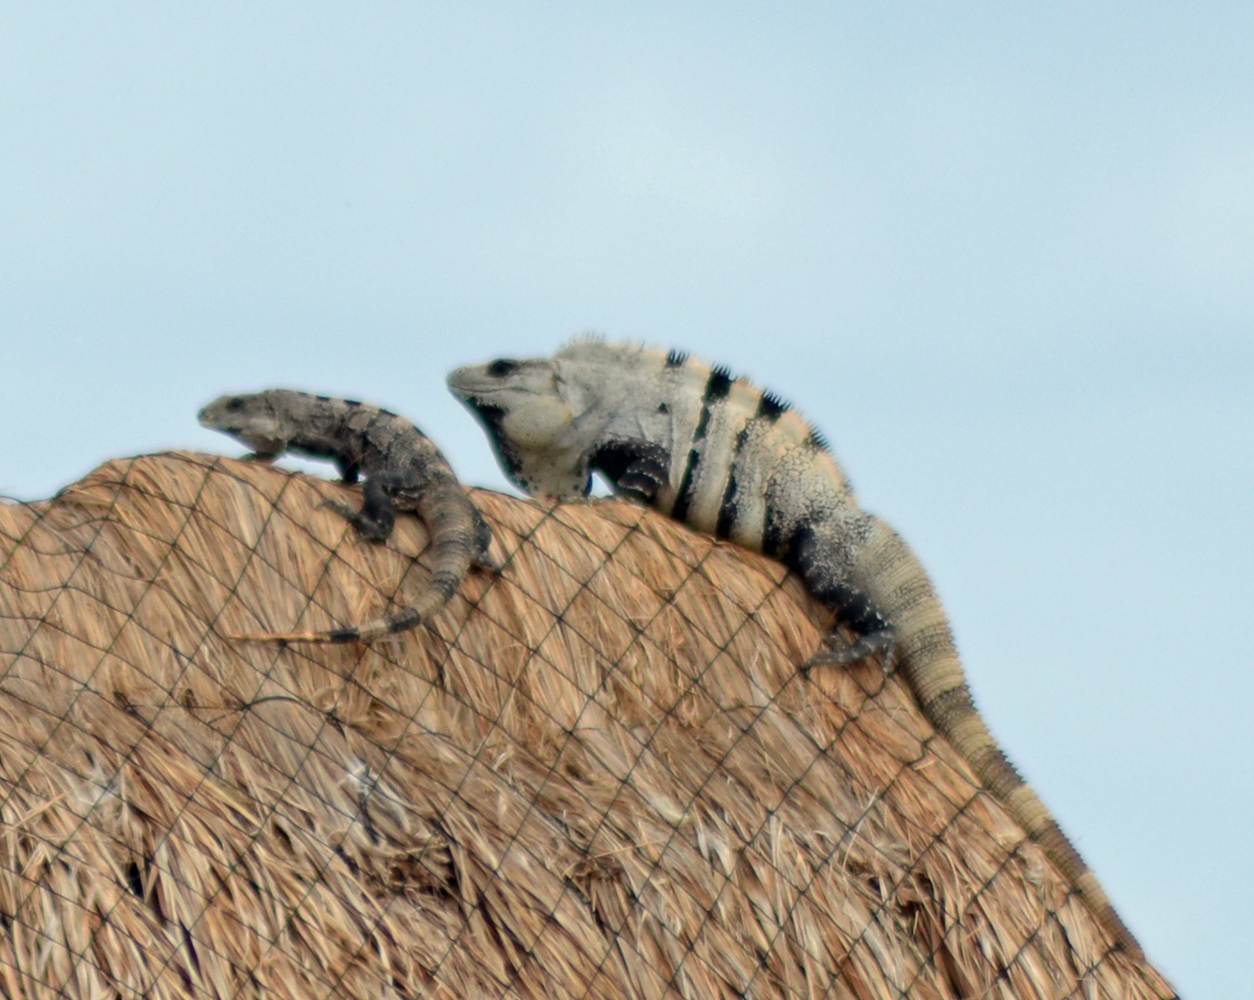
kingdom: Animalia
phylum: Chordata
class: Squamata
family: Iguanidae
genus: Ctenosaura
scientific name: Ctenosaura similis
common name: Black spiny-tailed iguana
